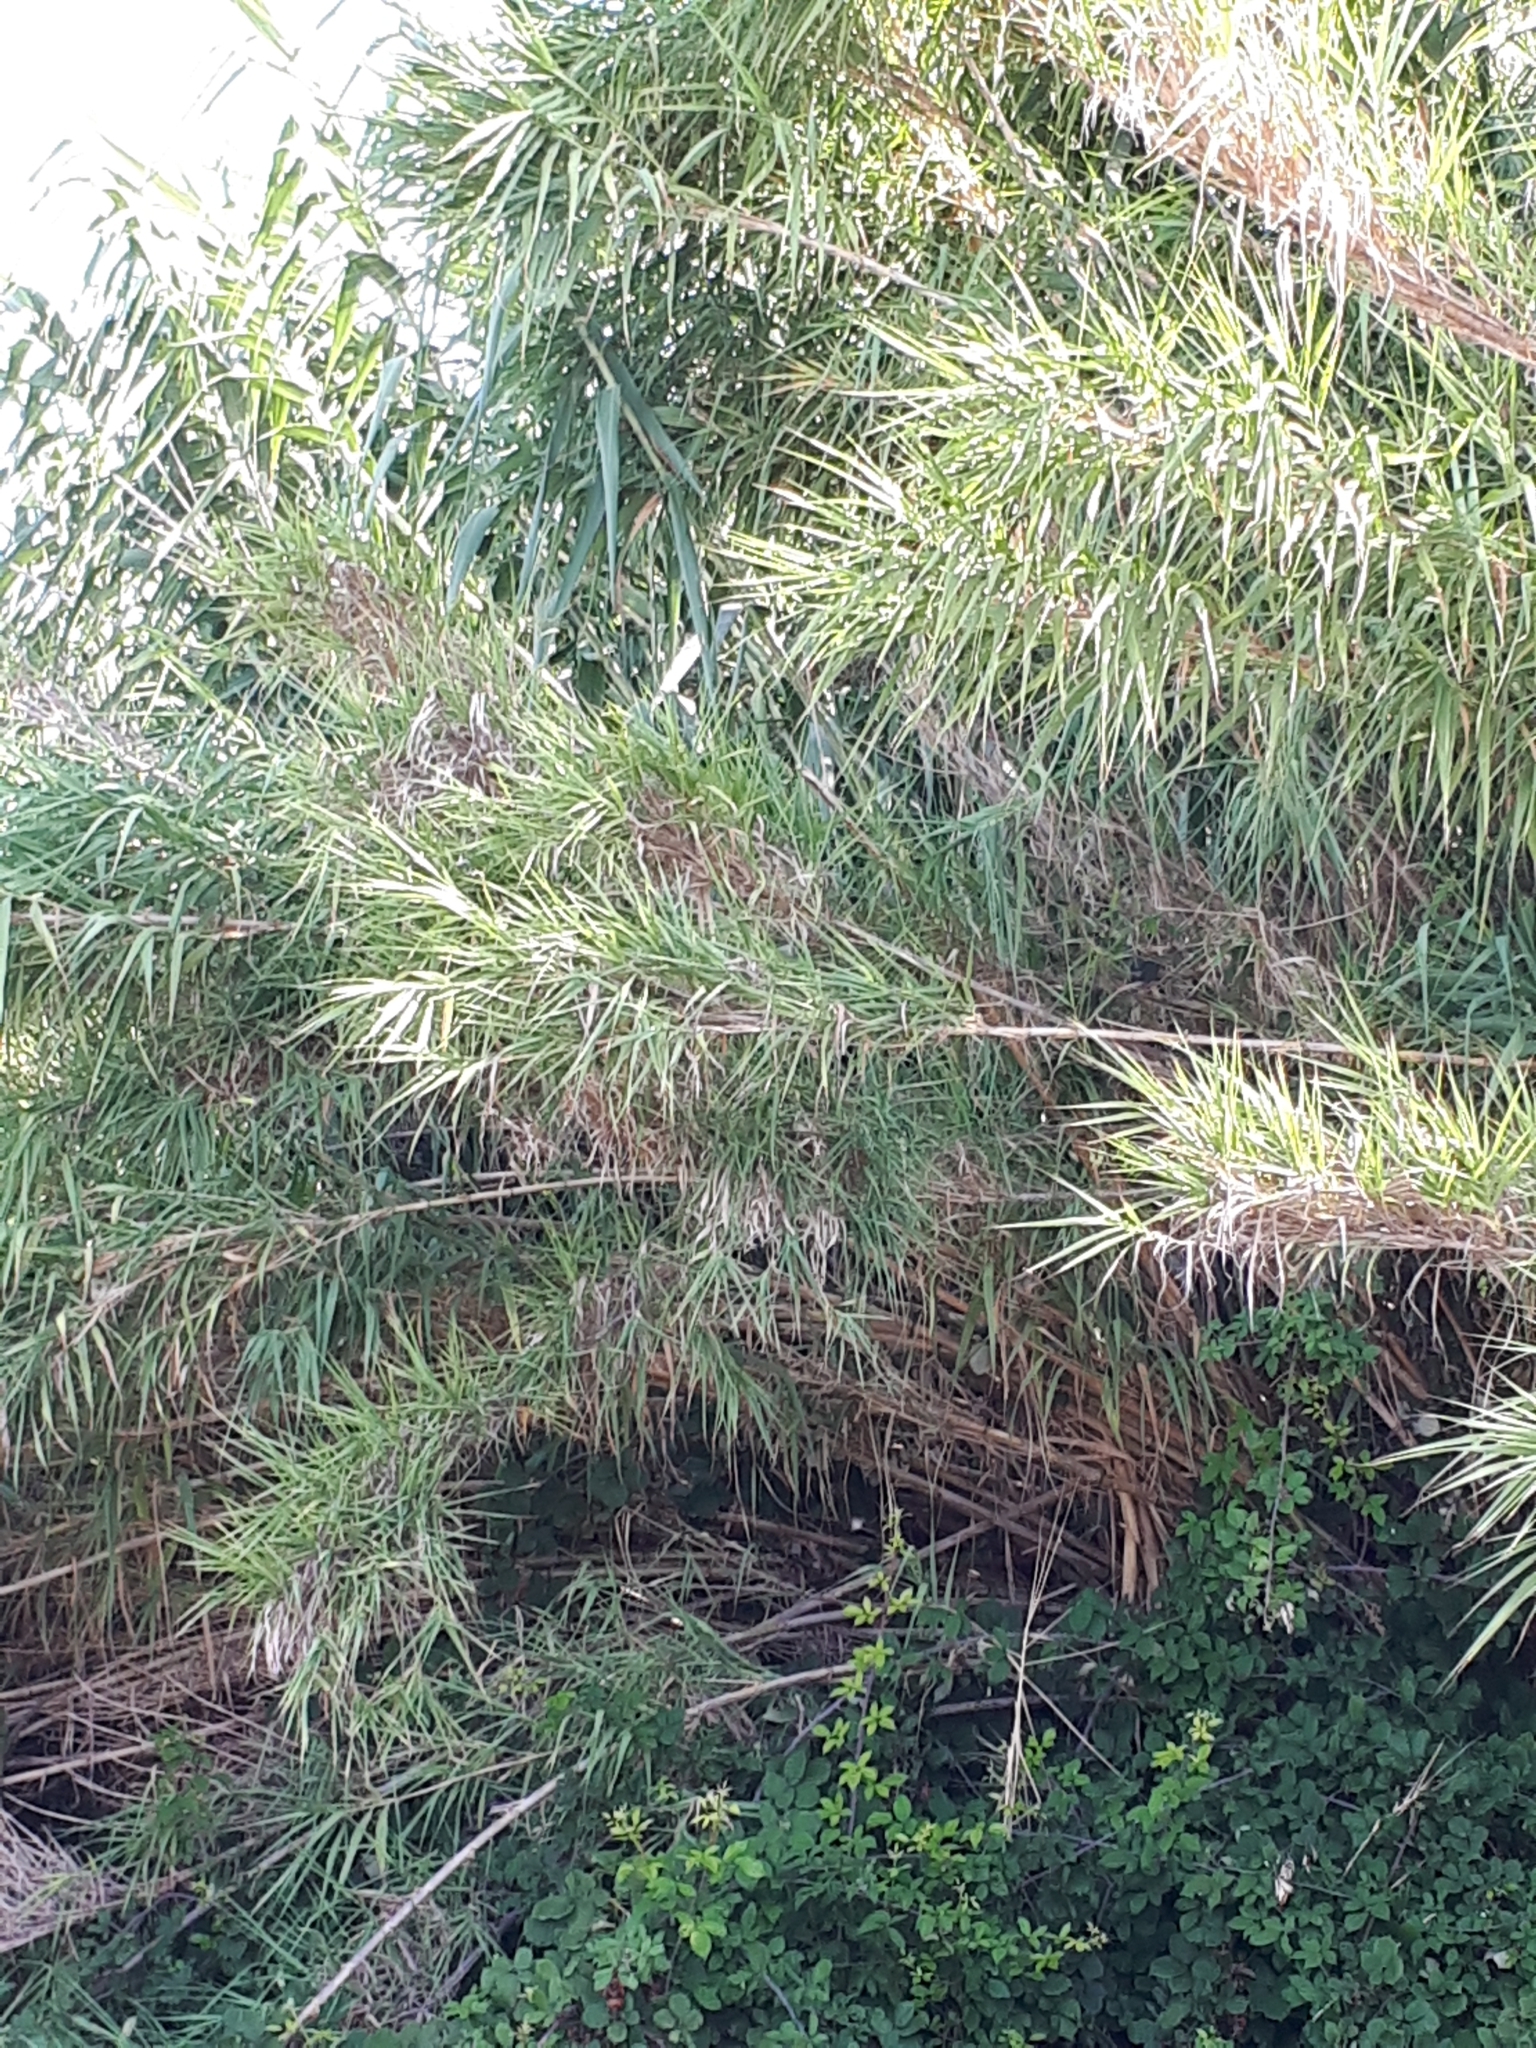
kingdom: Plantae
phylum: Tracheophyta
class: Liliopsida
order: Poales
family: Poaceae
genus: Arundo
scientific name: Arundo donax
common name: Giant reed
